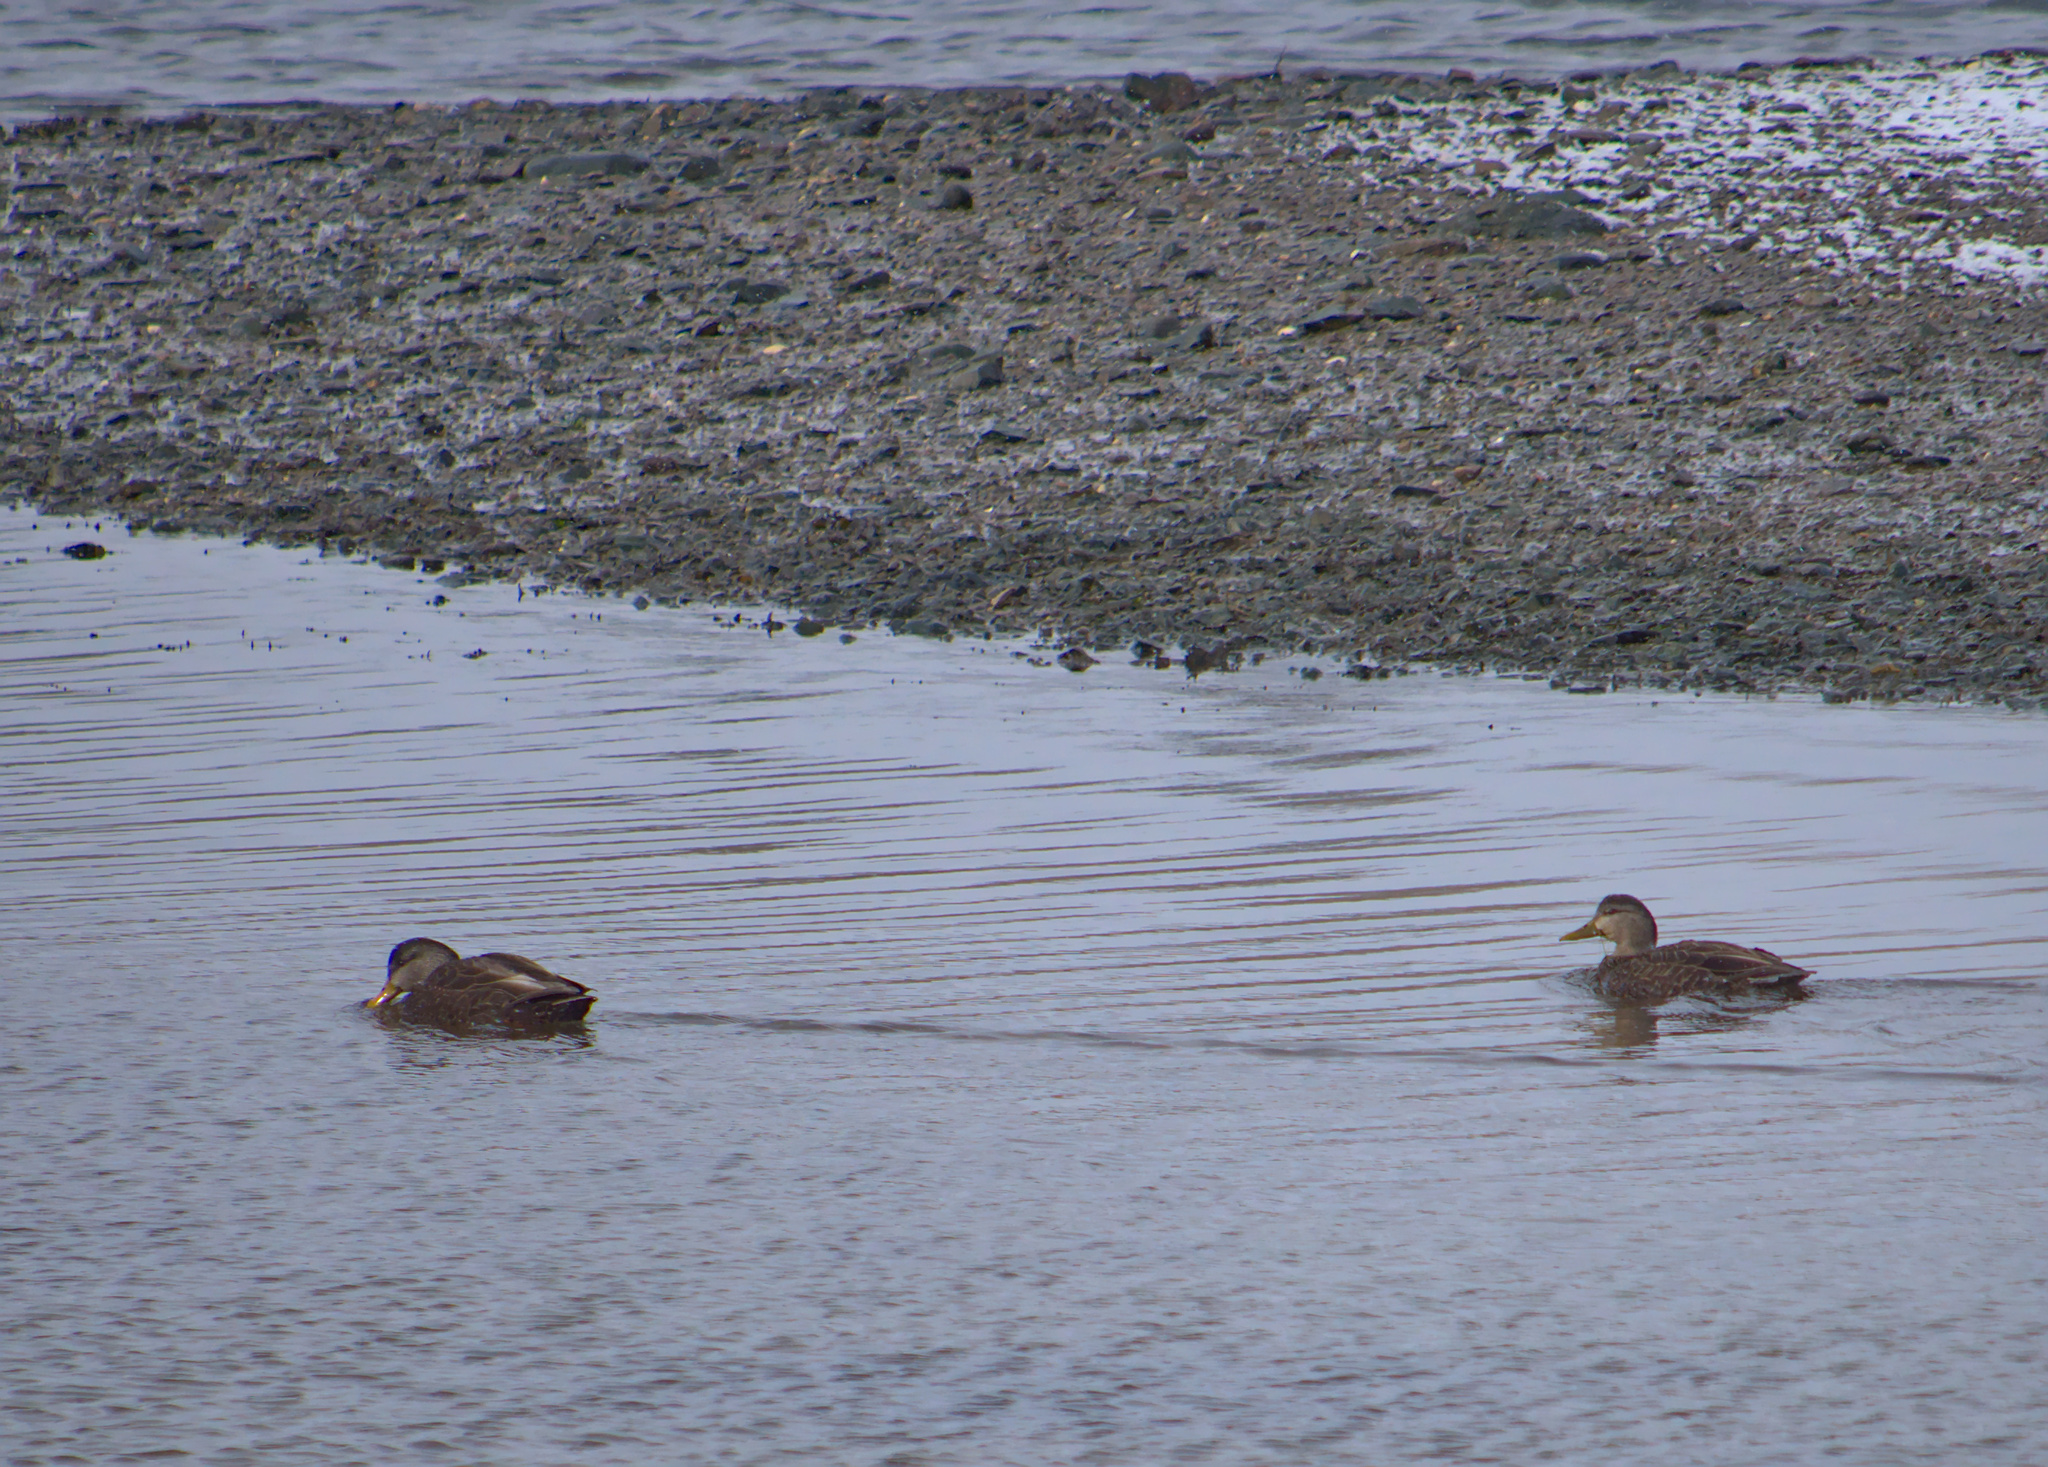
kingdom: Animalia
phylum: Chordata
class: Aves
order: Anseriformes
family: Anatidae
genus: Anas
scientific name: Anas rubripes
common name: American black duck
